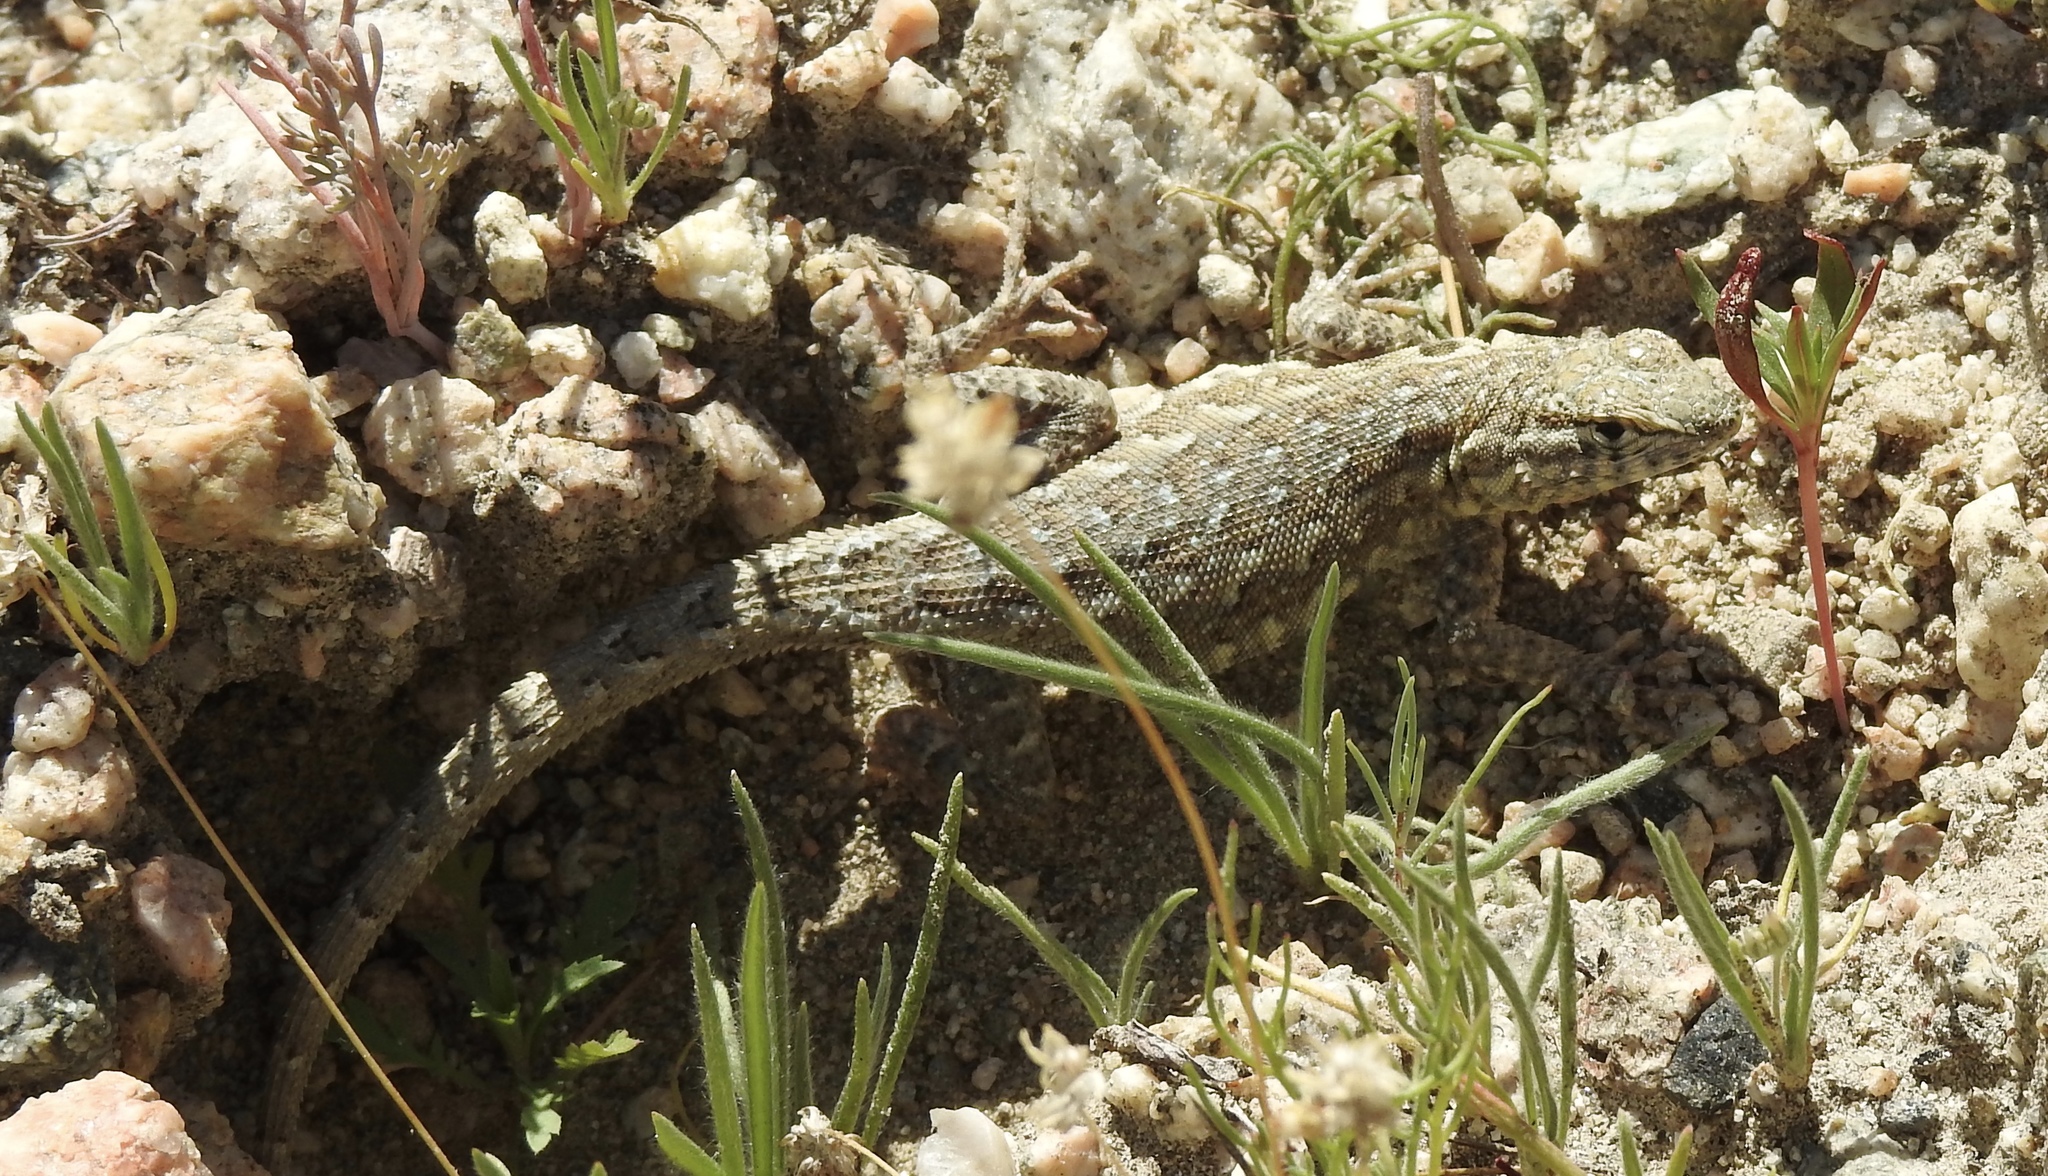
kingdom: Animalia
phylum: Chordata
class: Squamata
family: Phrynosomatidae
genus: Uta
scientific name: Uta stansburiana
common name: Side-blotched lizard
